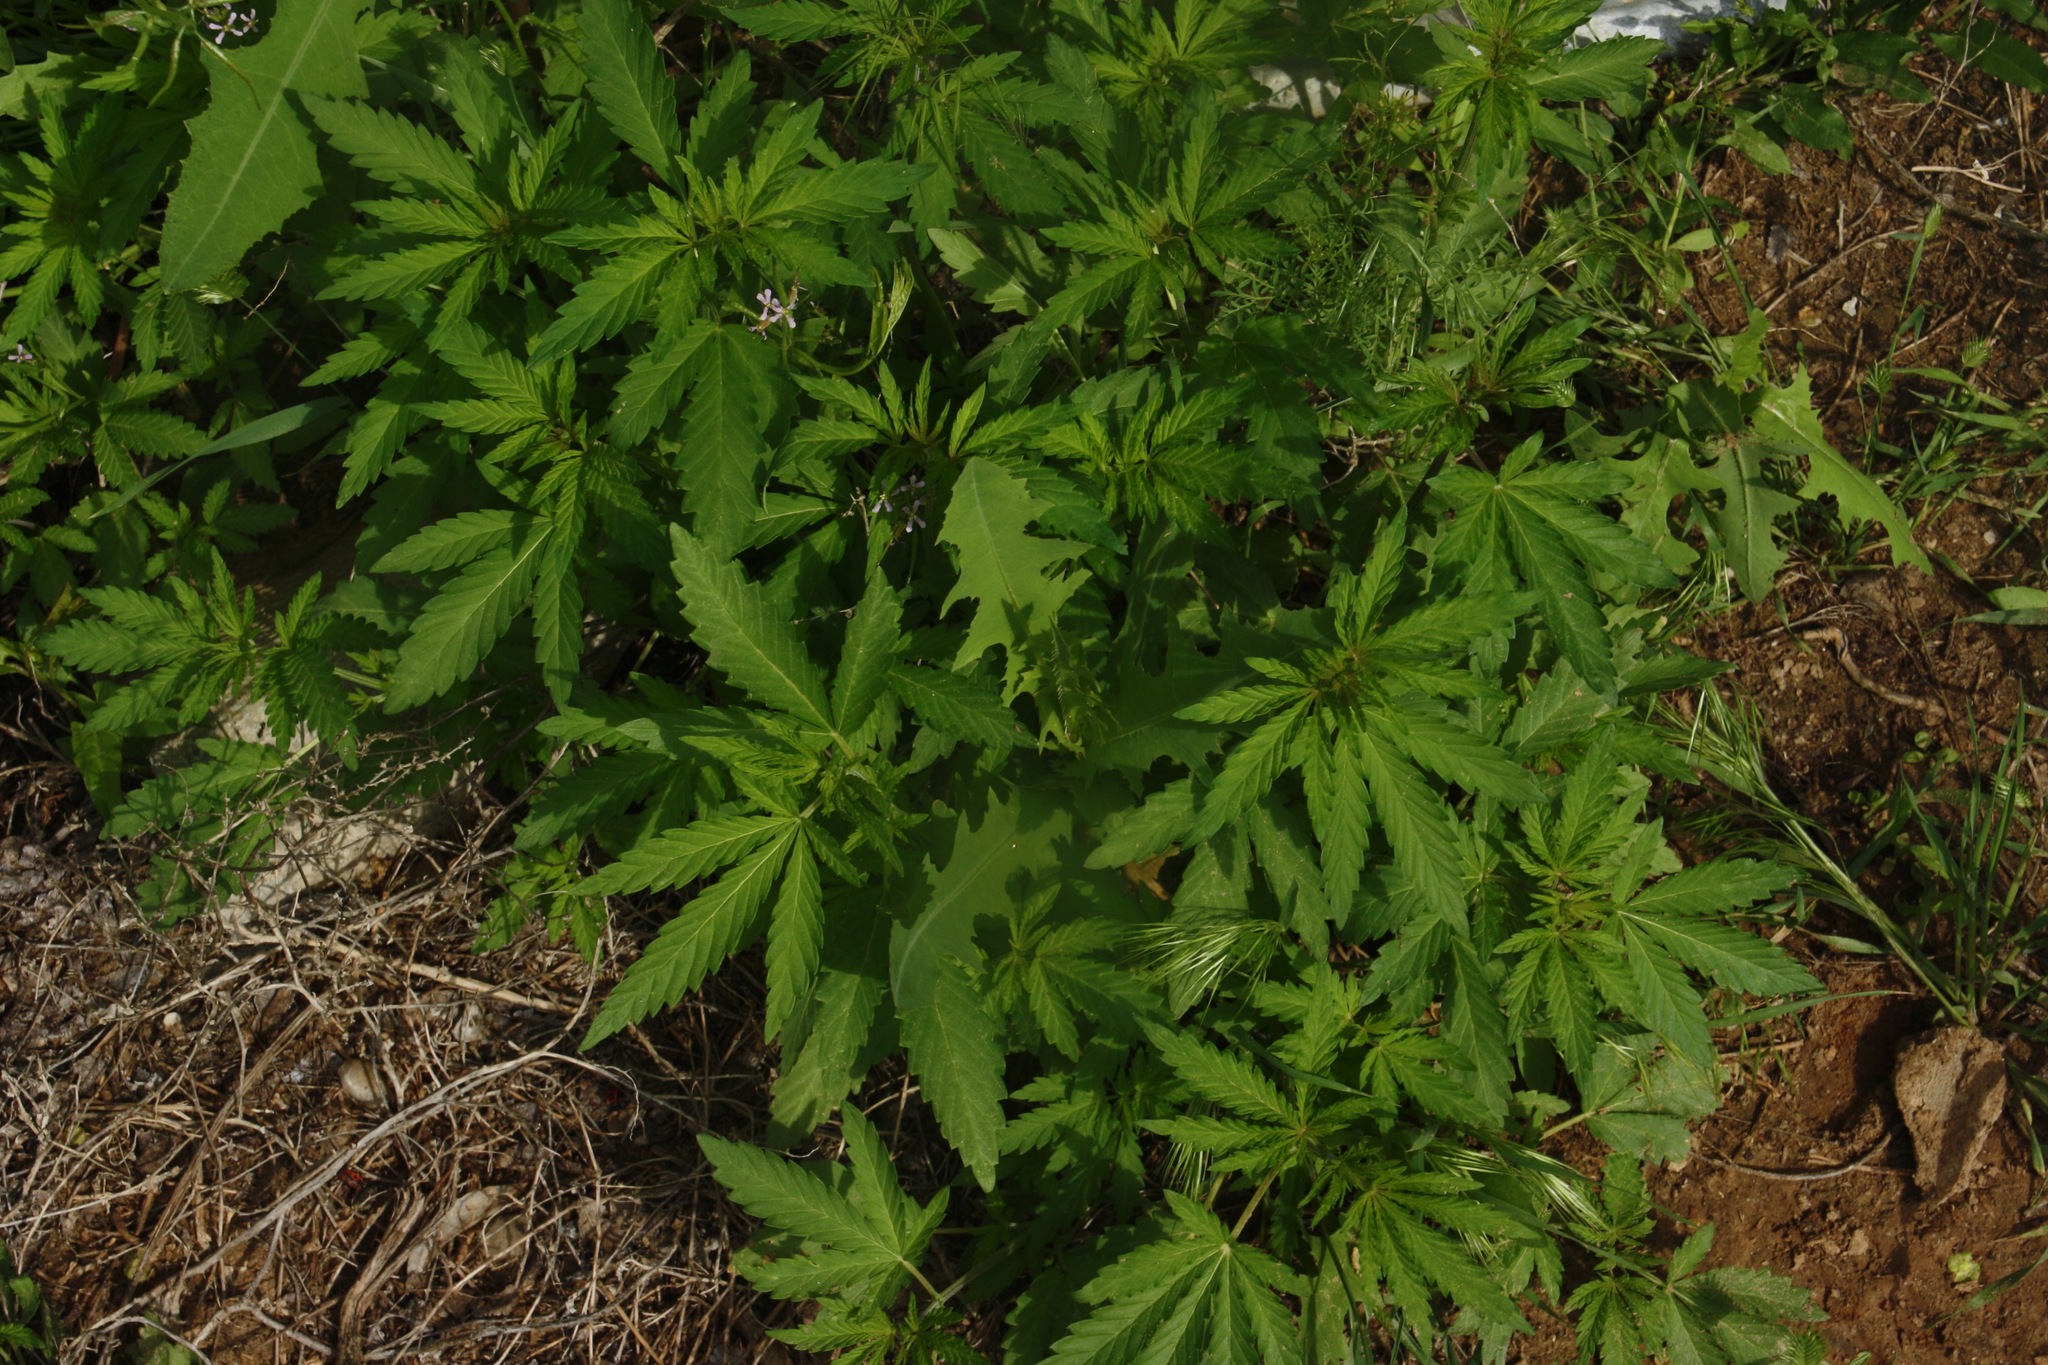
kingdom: Plantae
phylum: Tracheophyta
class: Magnoliopsida
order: Rosales
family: Cannabaceae
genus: Cannabis
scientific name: Cannabis sativa
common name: Hemp
